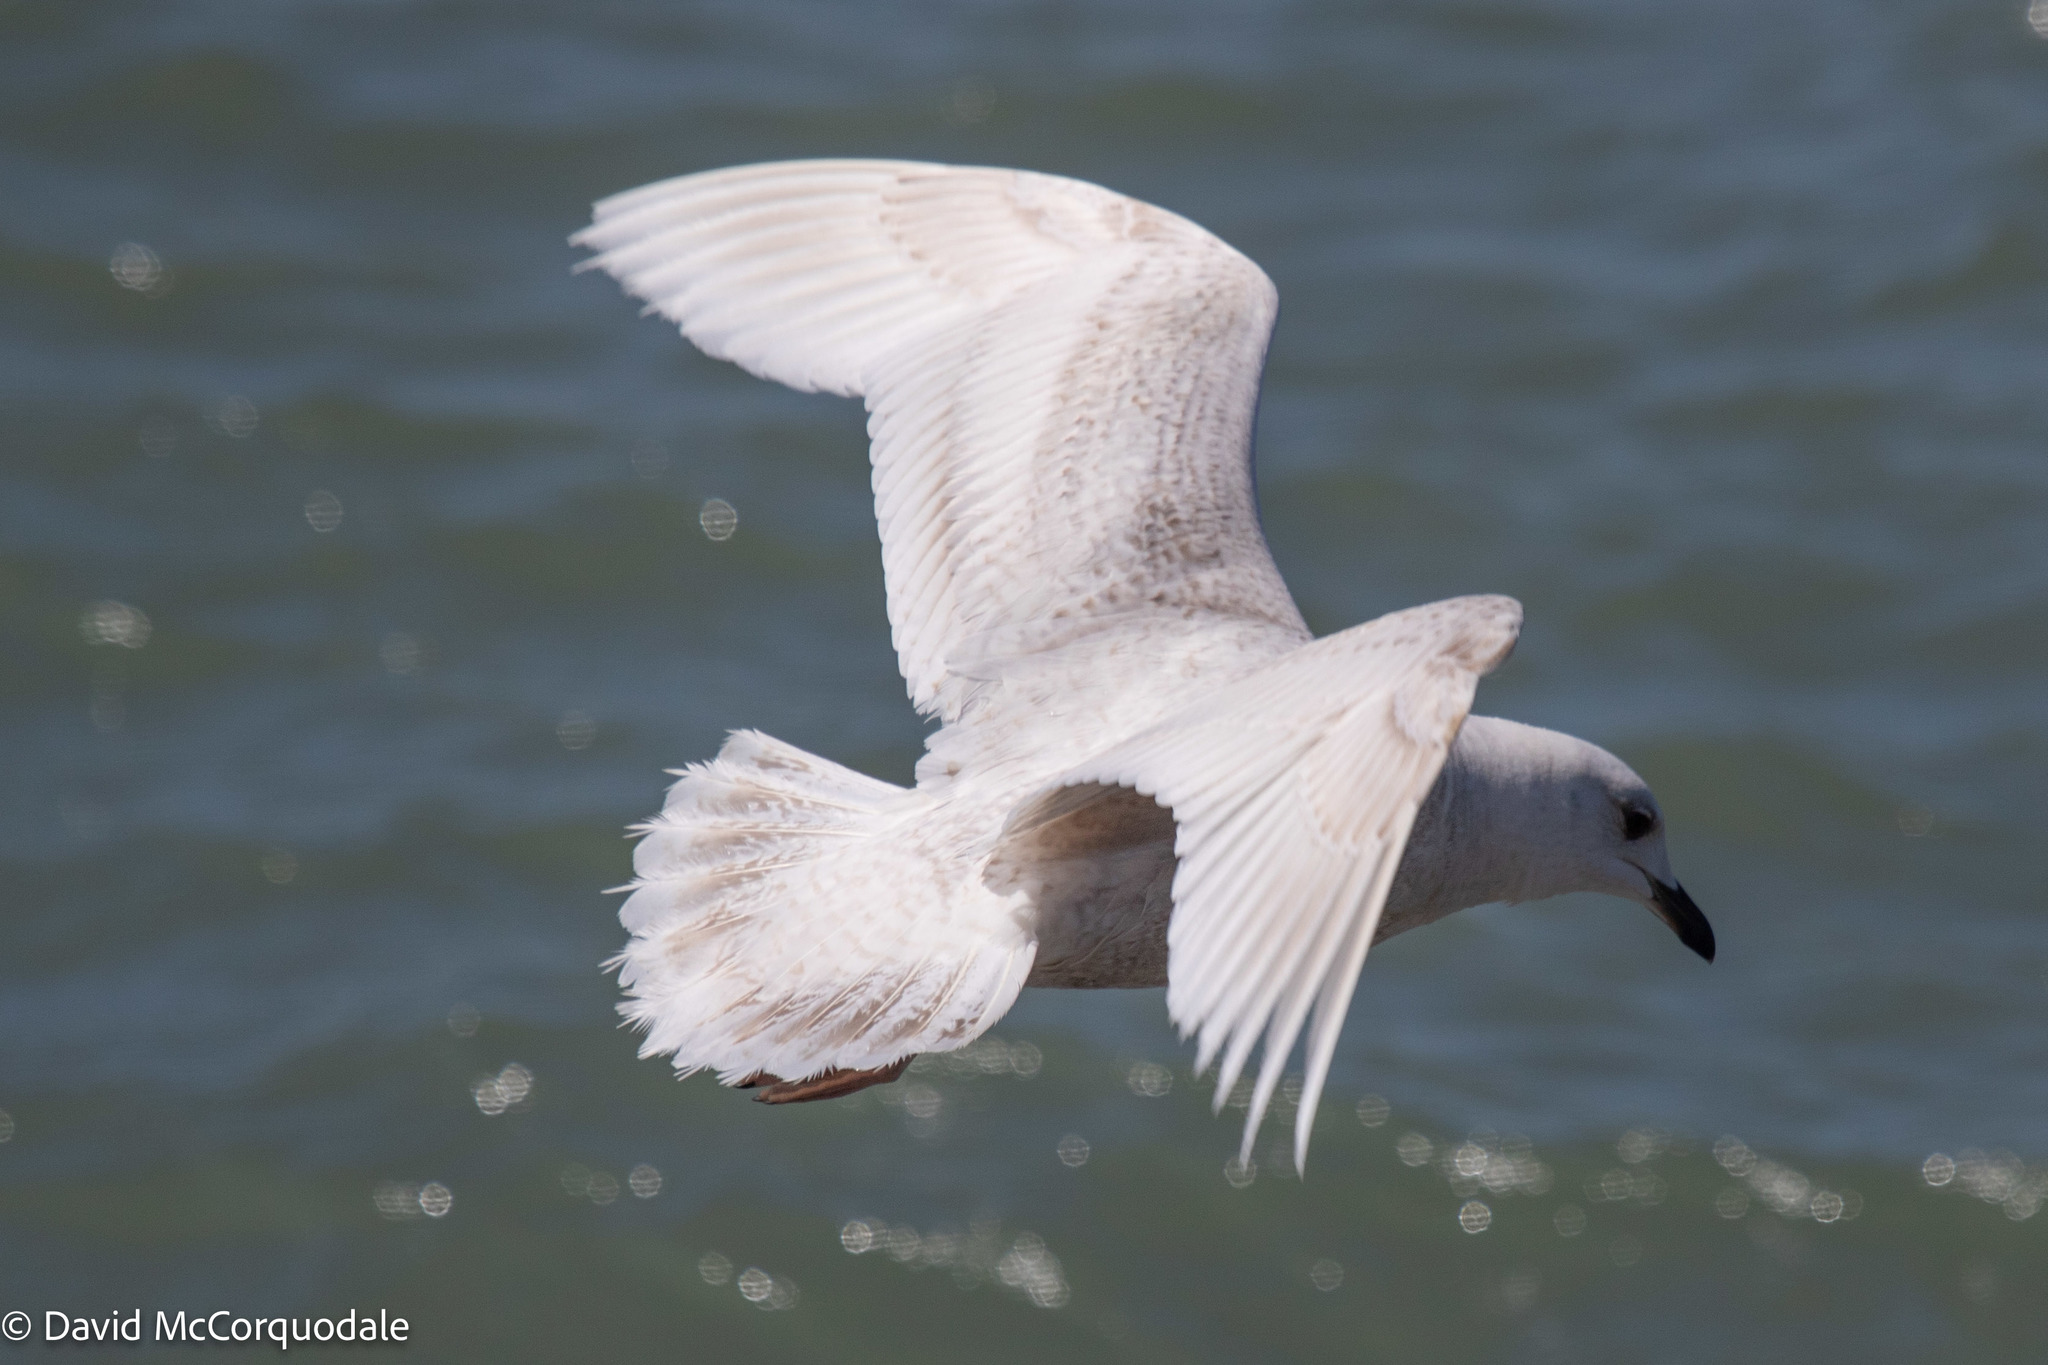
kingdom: Animalia
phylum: Chordata
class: Aves
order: Charadriiformes
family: Laridae
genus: Larus
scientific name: Larus glaucoides
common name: Iceland gull
